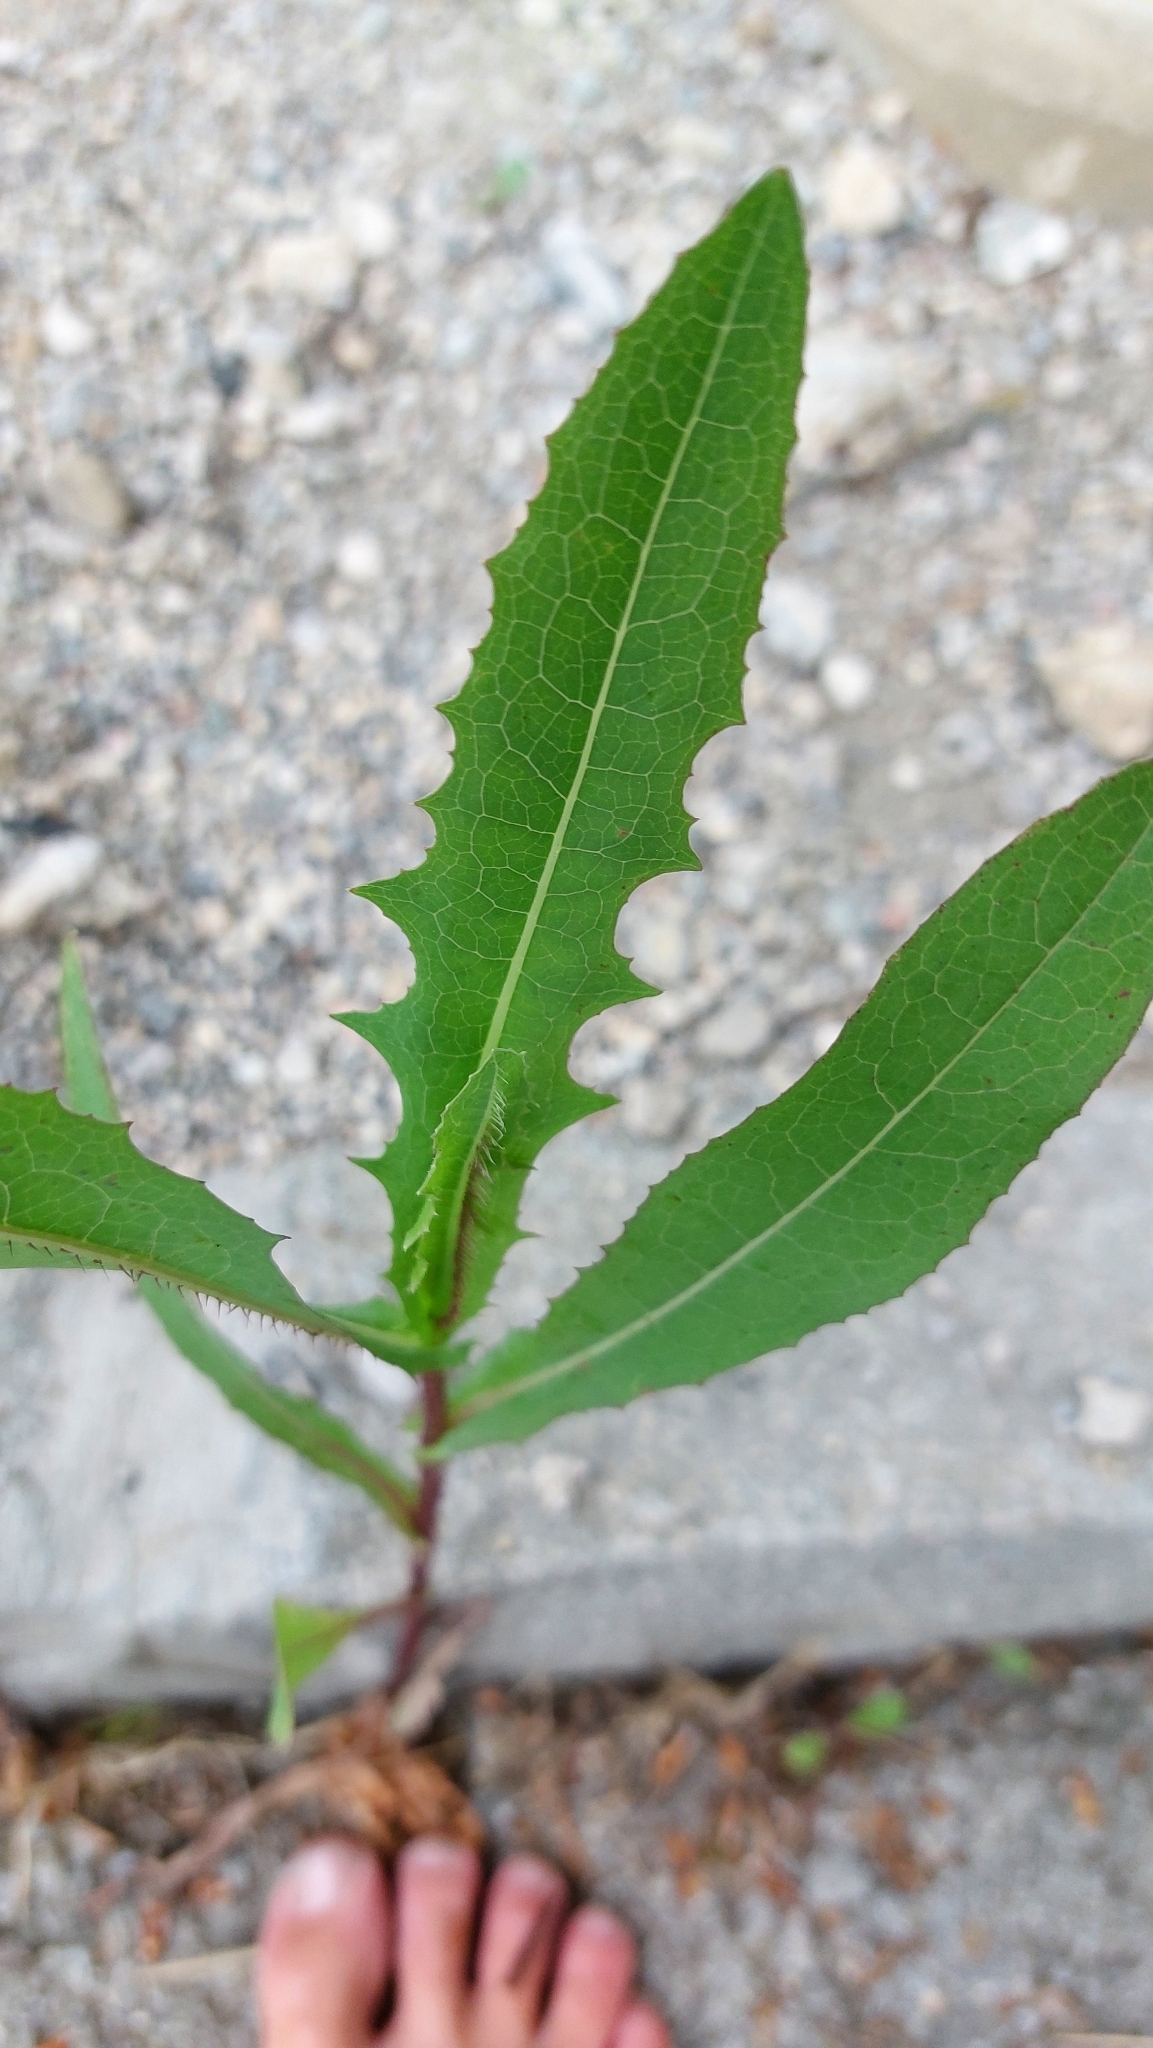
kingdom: Plantae
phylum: Tracheophyta
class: Magnoliopsida
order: Asterales
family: Asteraceae
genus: Lactuca
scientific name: Lactuca serriola
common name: Prickly lettuce
